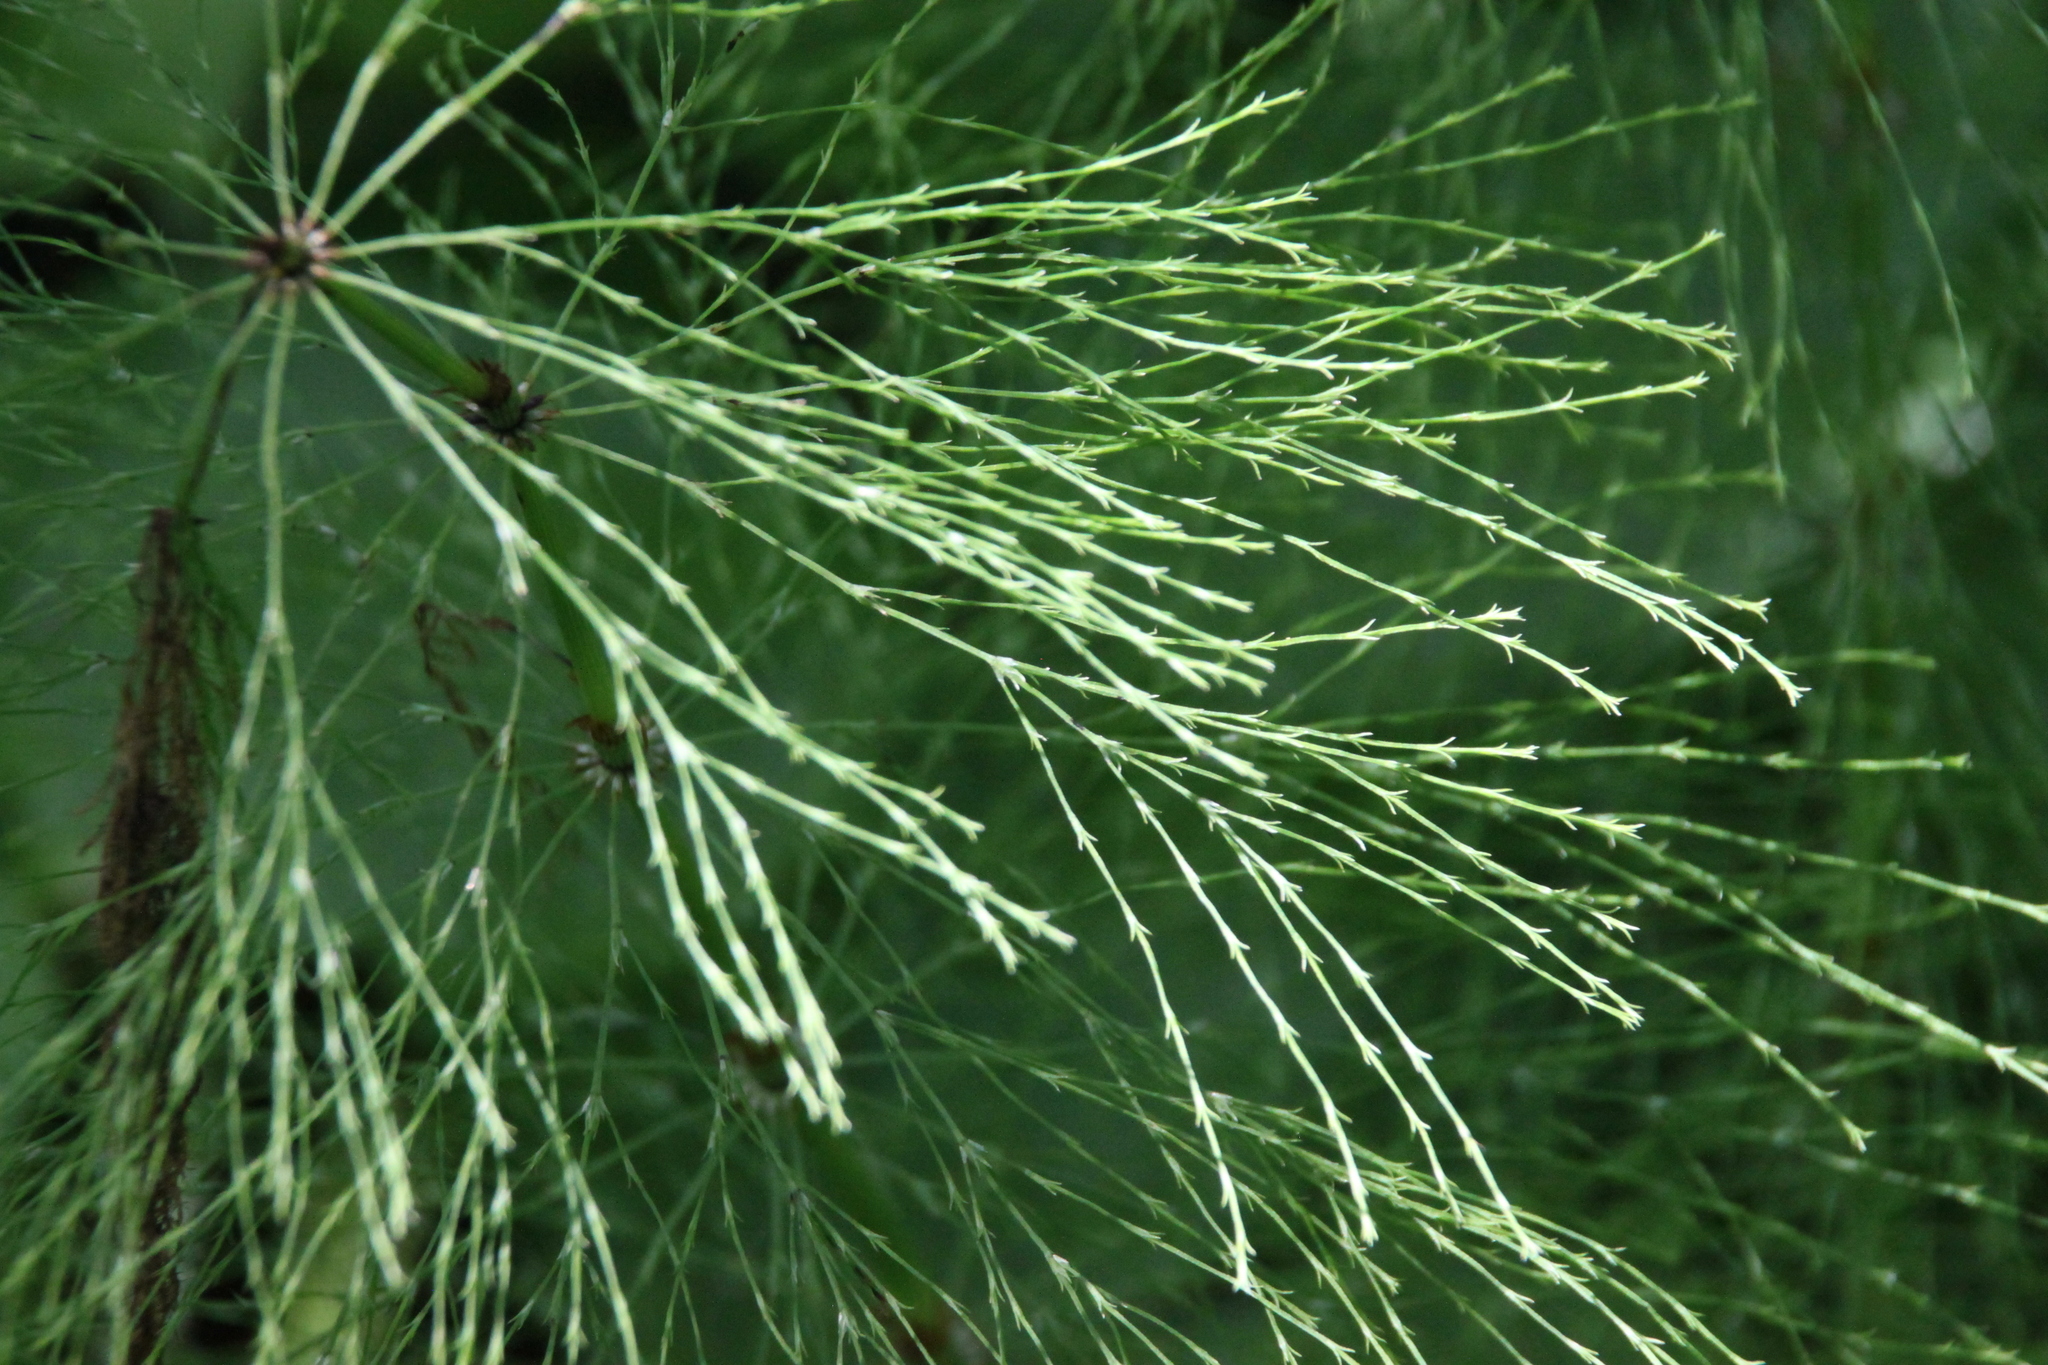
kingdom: Plantae
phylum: Tracheophyta
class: Polypodiopsida
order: Equisetales
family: Equisetaceae
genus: Equisetum
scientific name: Equisetum sylvaticum
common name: Wood horsetail
